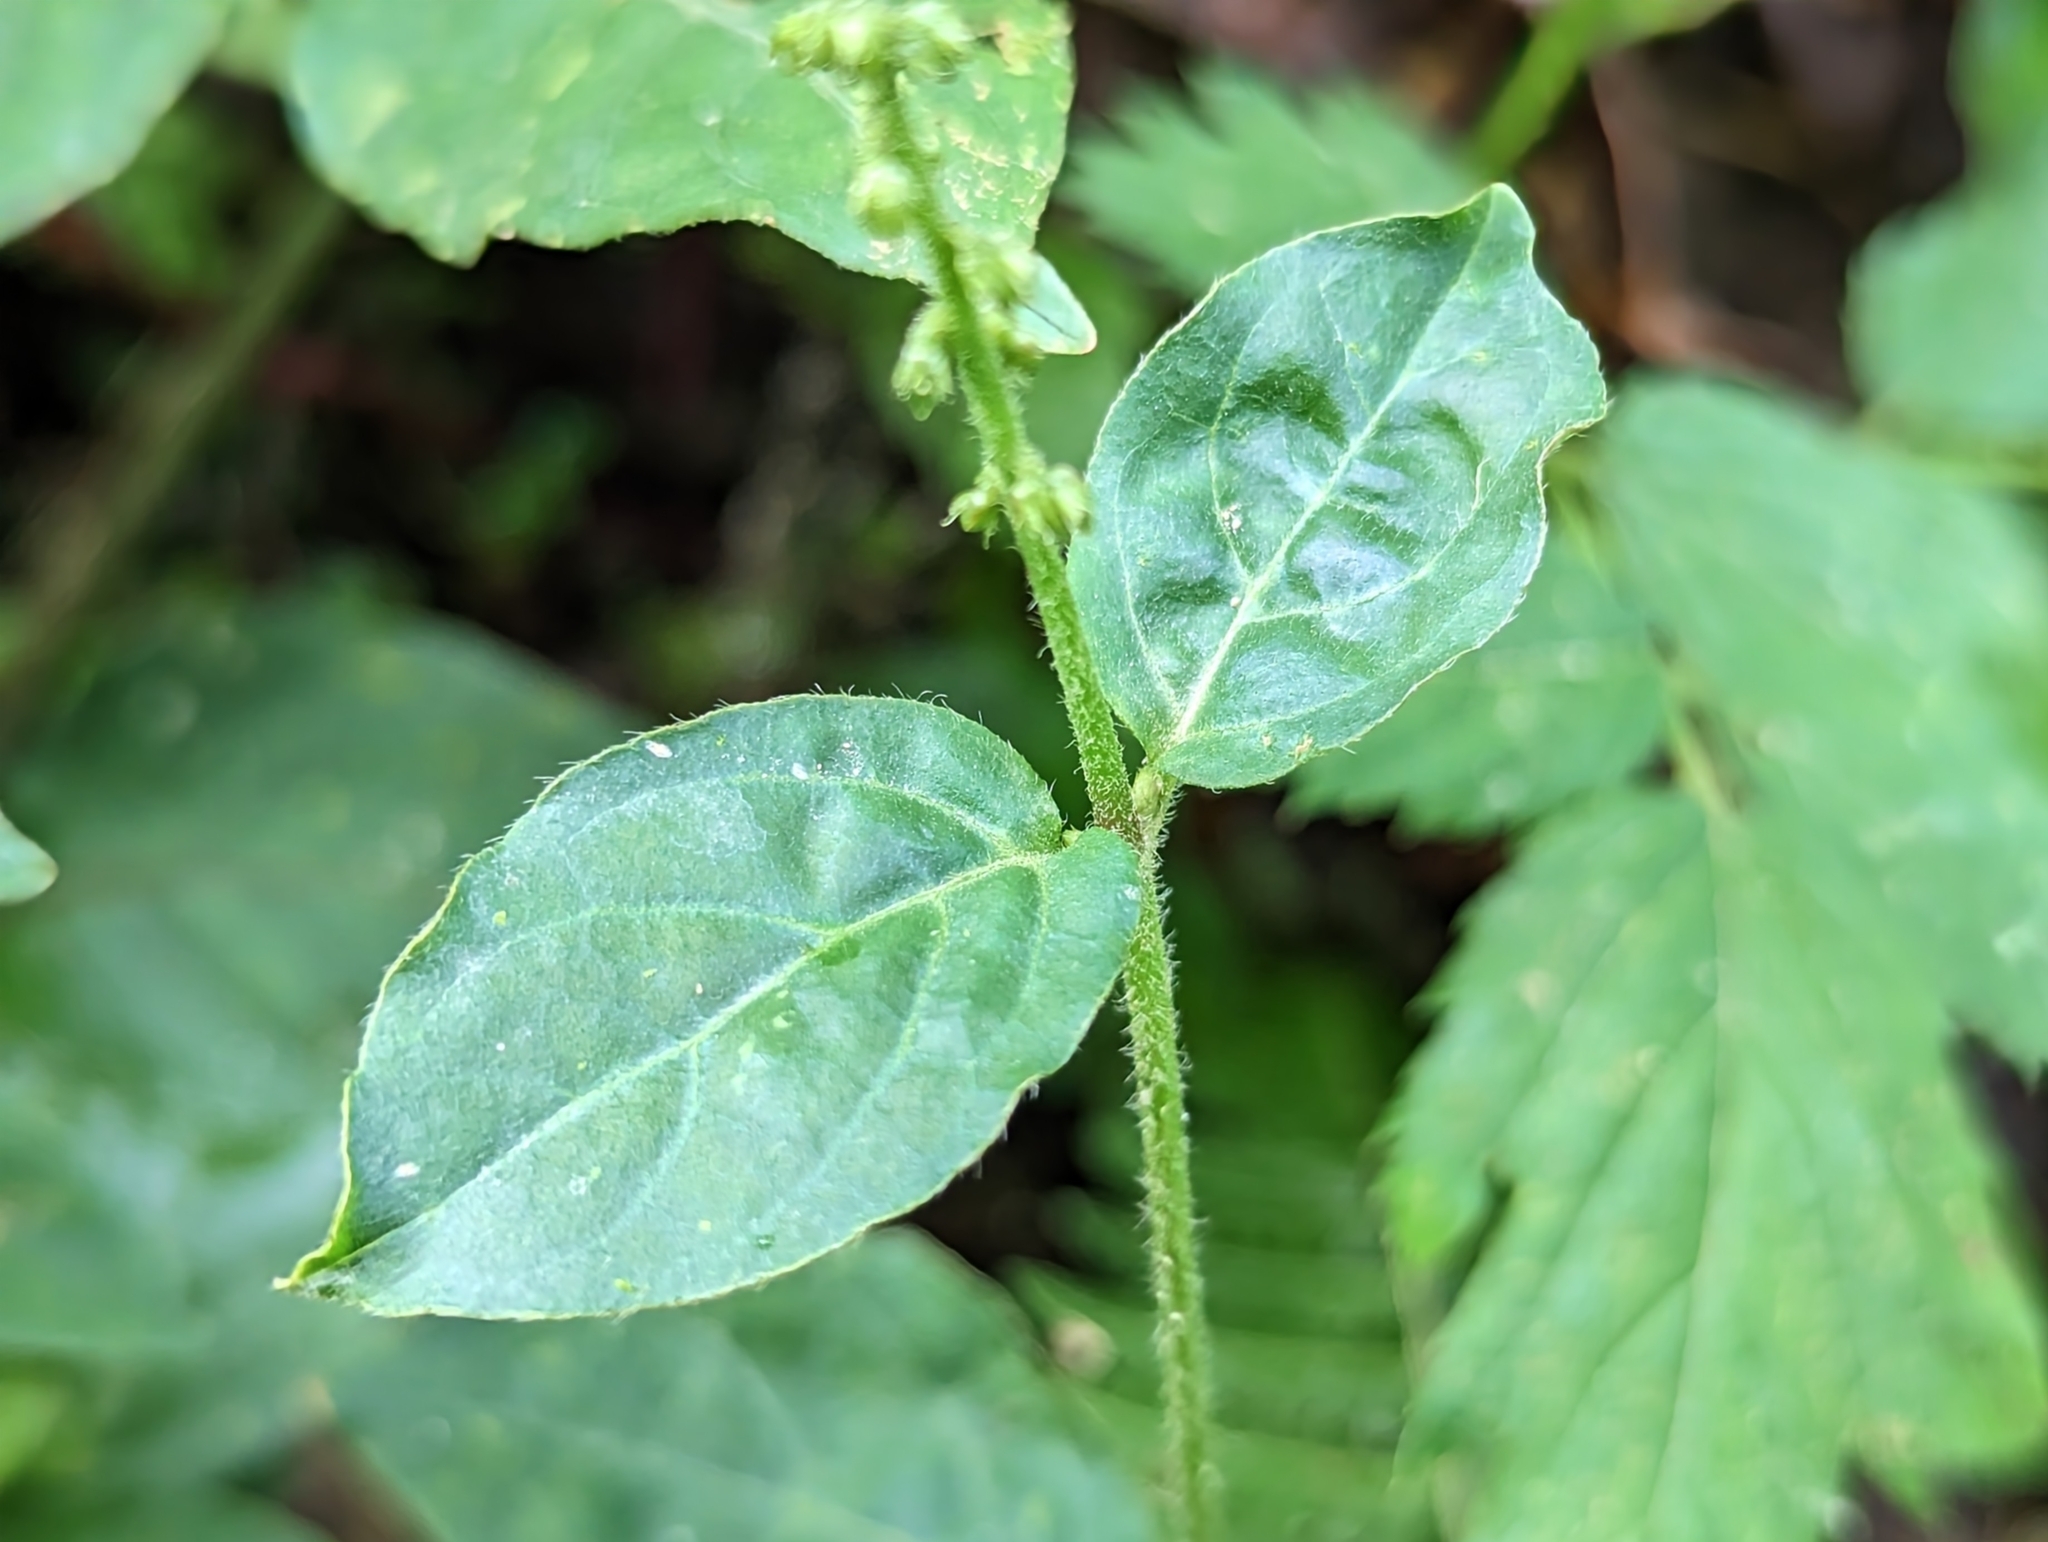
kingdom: Plantae
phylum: Tracheophyta
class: Magnoliopsida
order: Caryophyllales
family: Amaranthaceae
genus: Cyathula
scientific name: Cyathula prostrata
